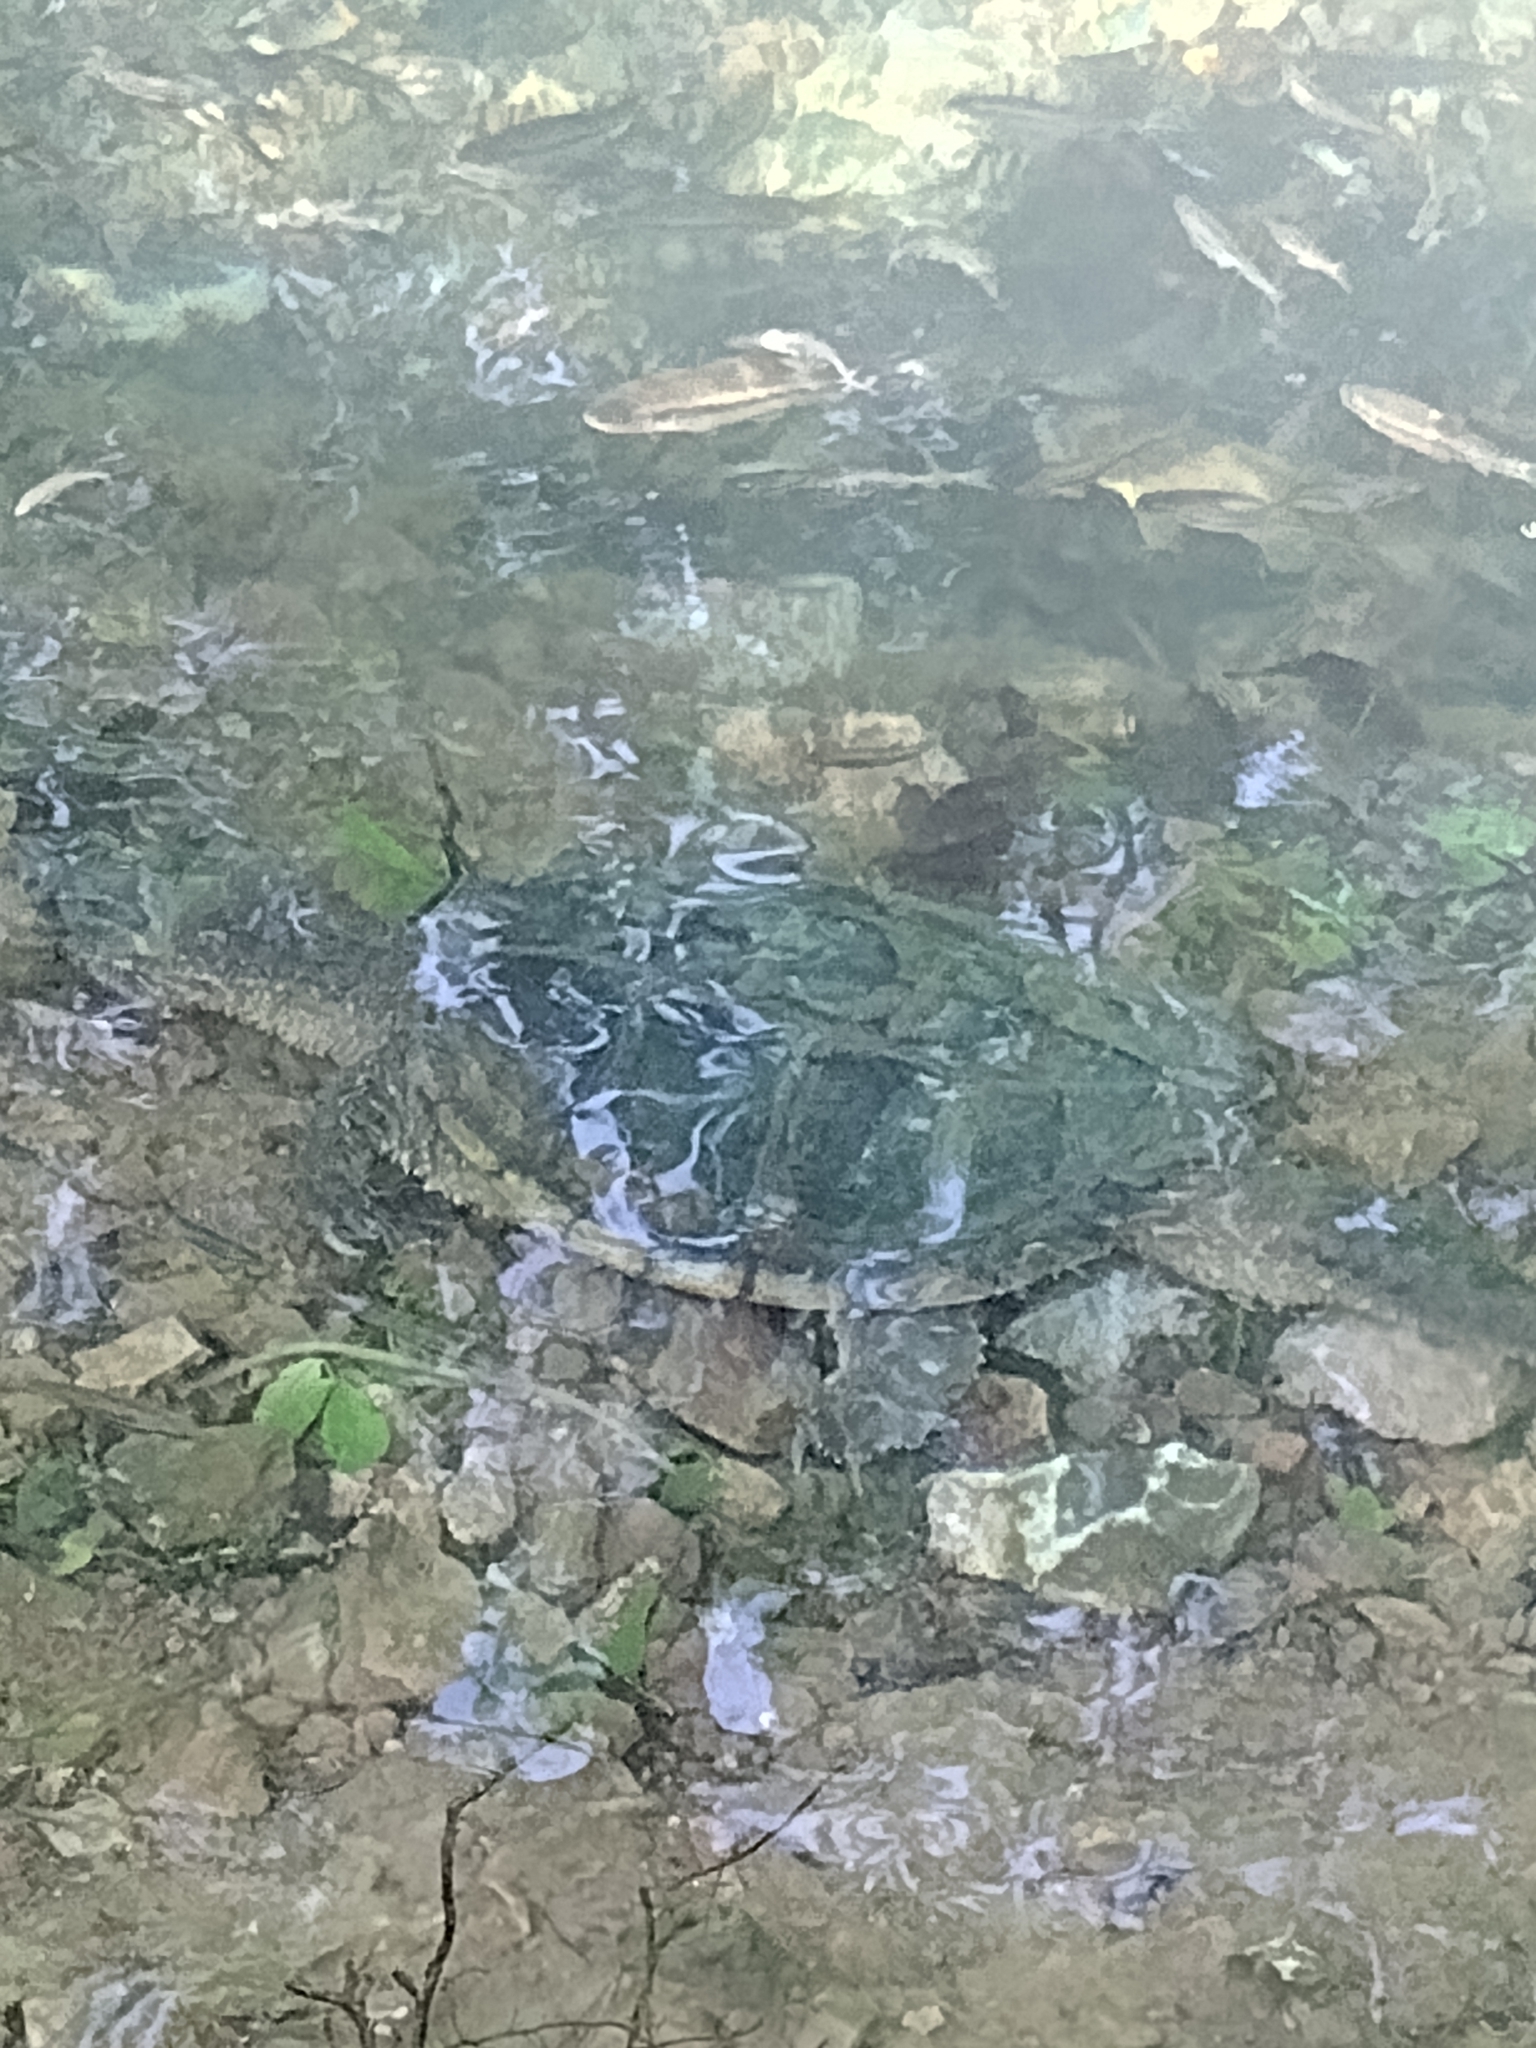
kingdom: Animalia
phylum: Chordata
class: Testudines
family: Chelydridae
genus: Chelydra
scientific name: Chelydra serpentina
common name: Common snapping turtle
